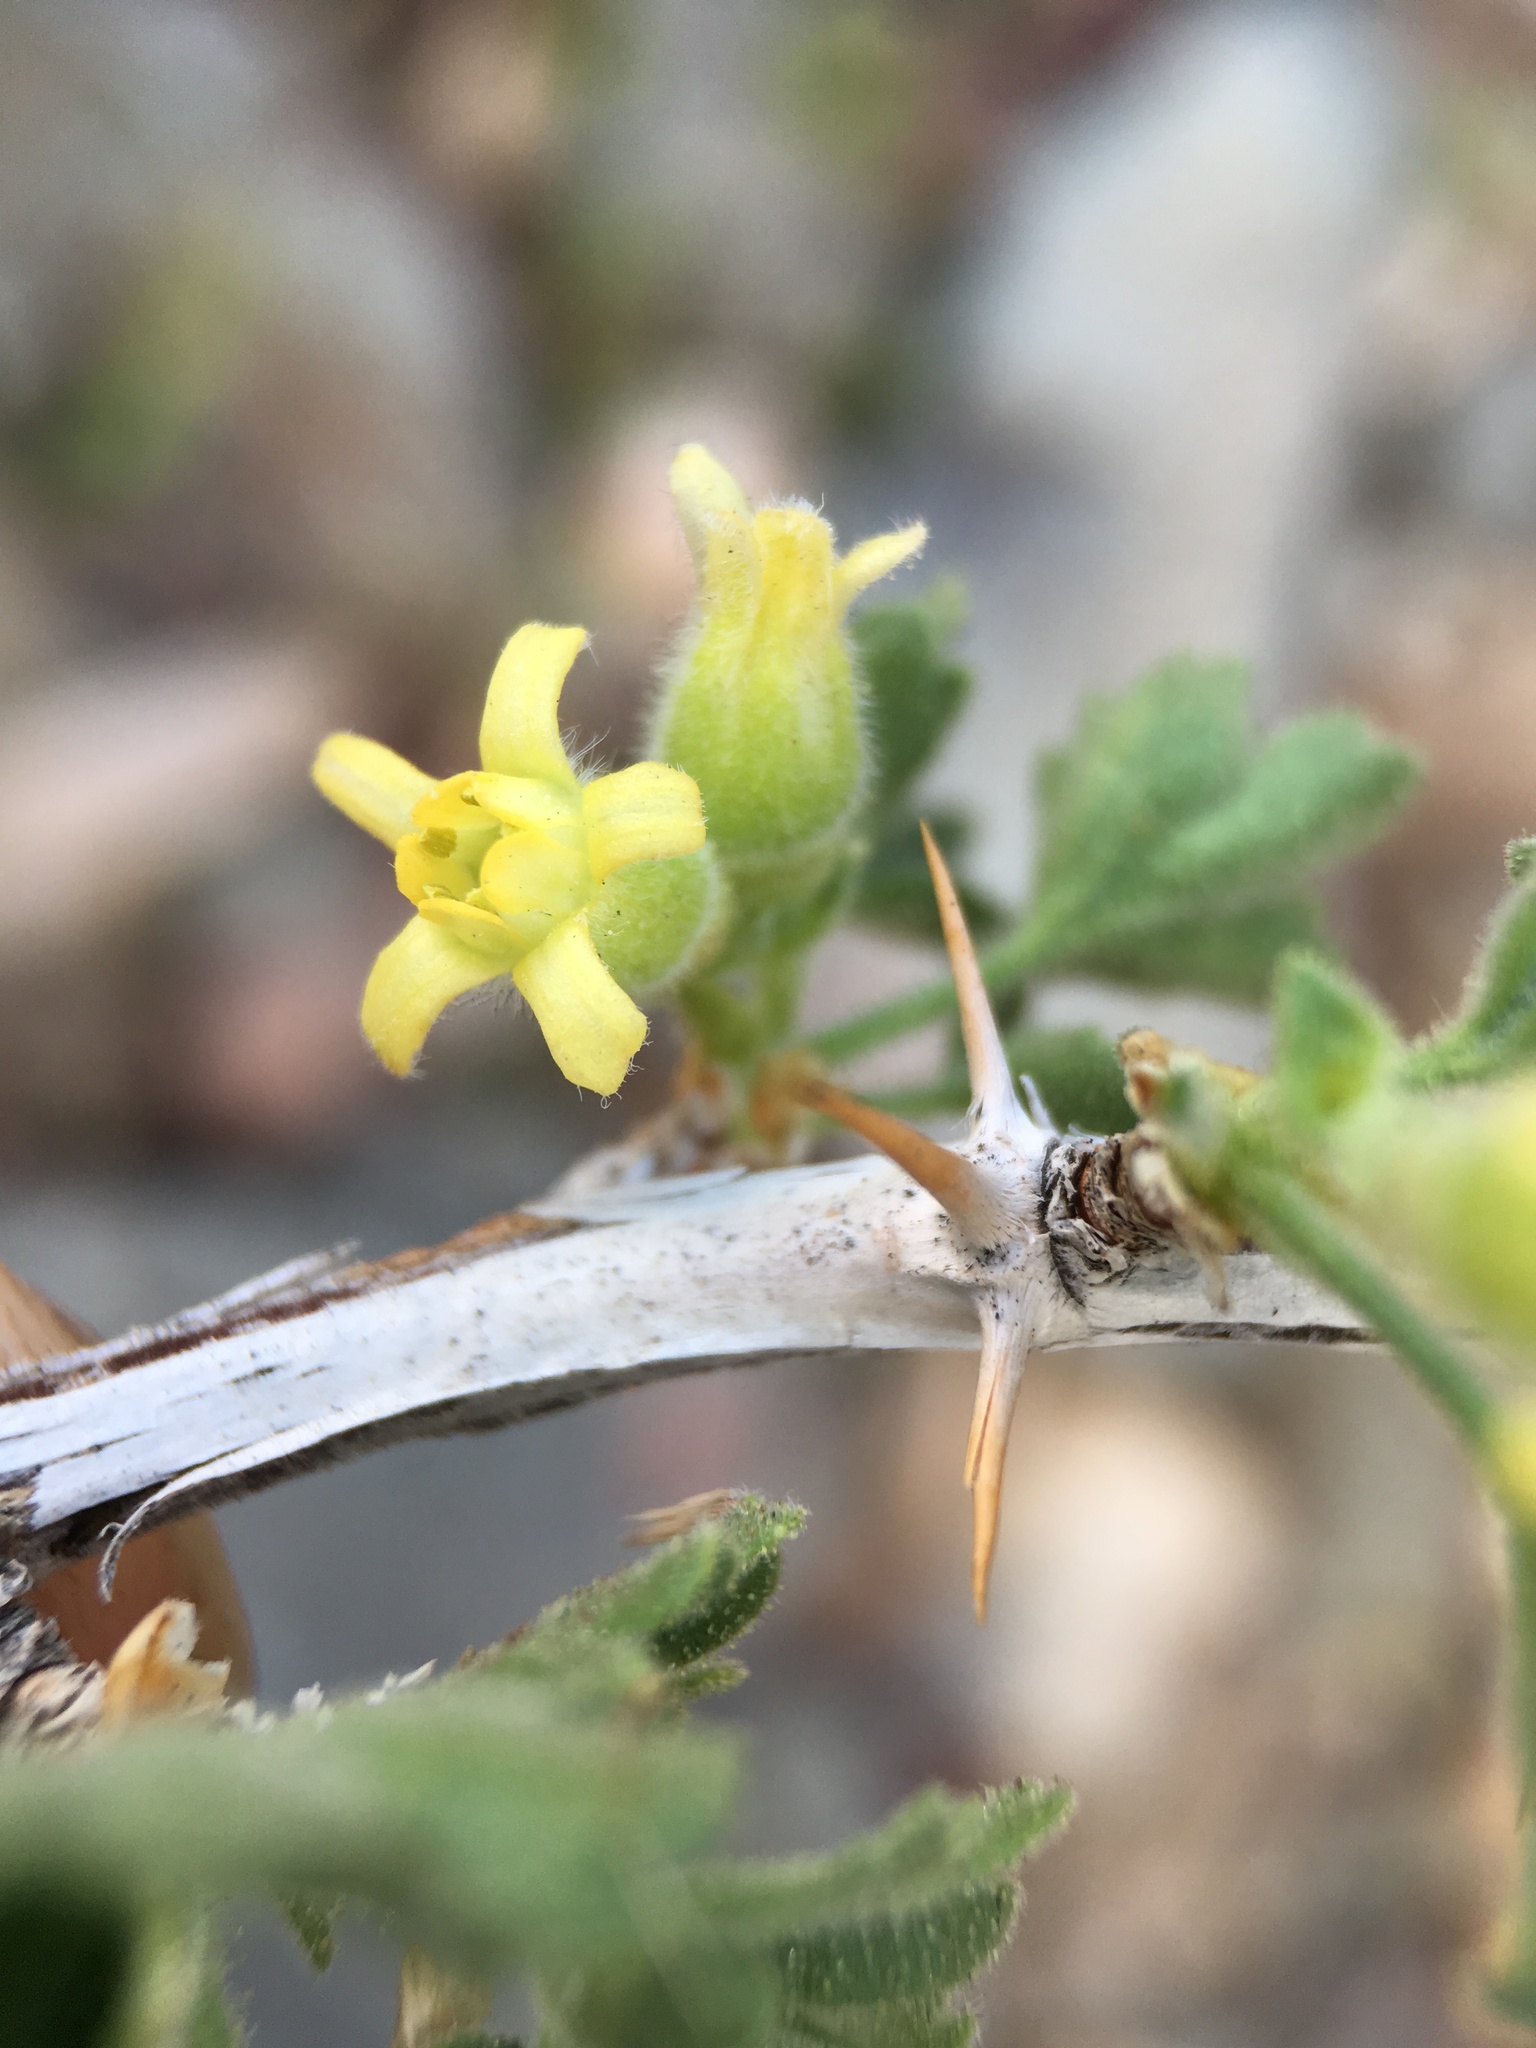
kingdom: Plantae
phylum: Tracheophyta
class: Magnoliopsida
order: Saxifragales
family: Grossulariaceae
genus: Ribes
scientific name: Ribes velutinum
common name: Desert gooseberry
